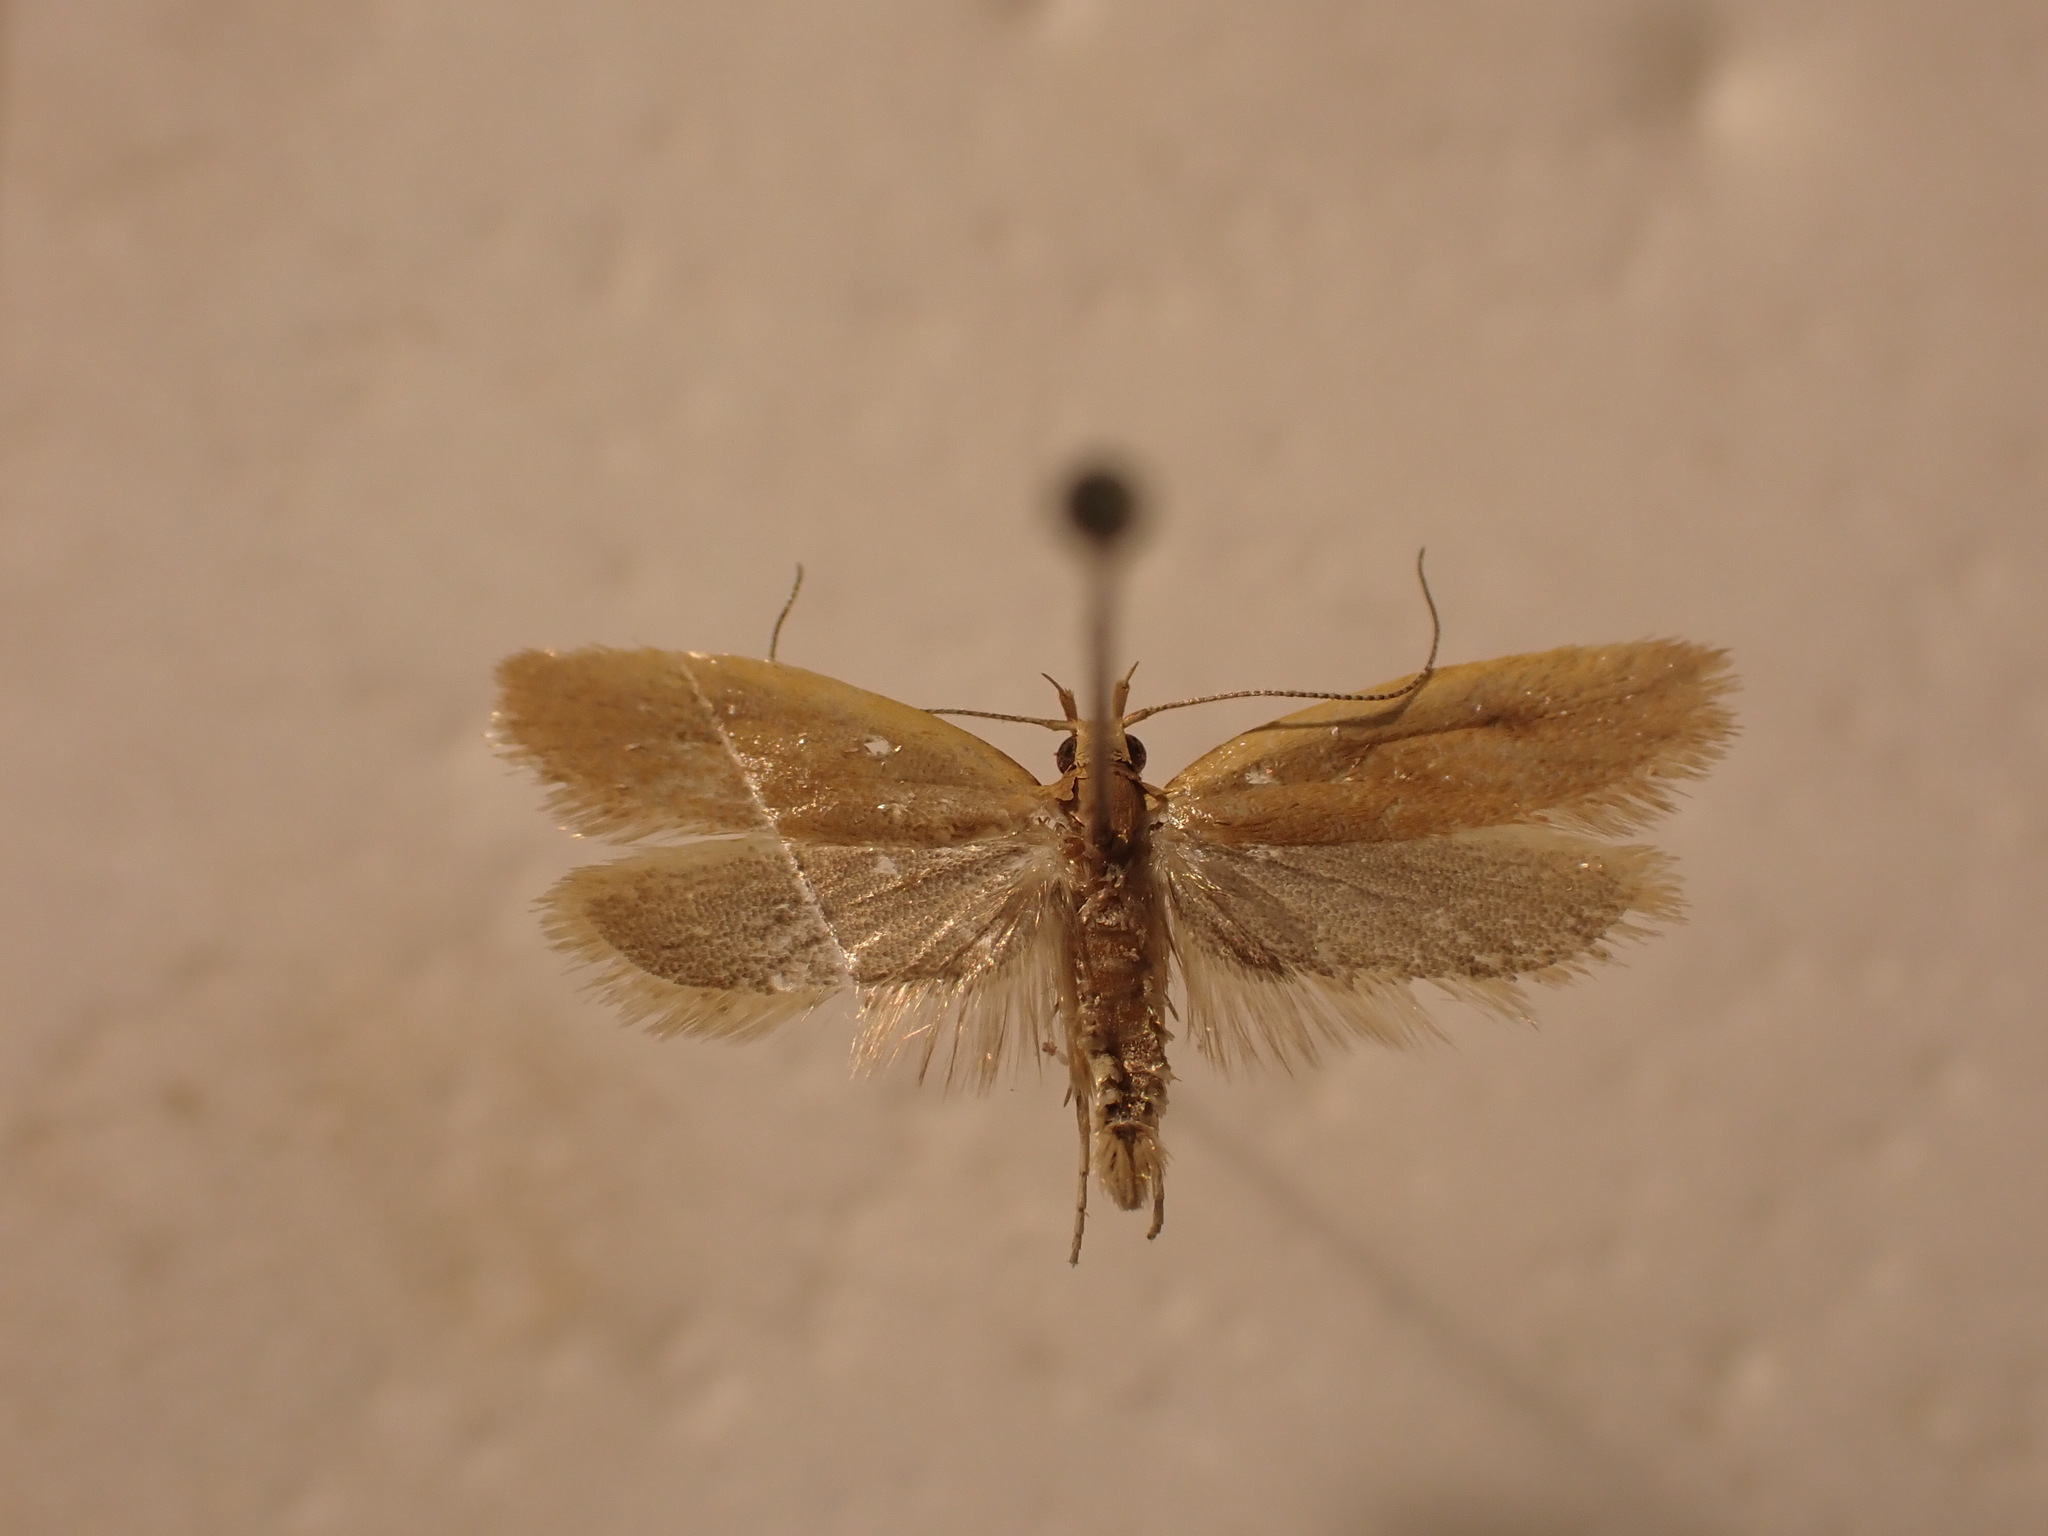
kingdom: Animalia
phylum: Arthropoda
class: Insecta
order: Lepidoptera
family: Oecophoridae
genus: Gymnobathra
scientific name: Gymnobathra parca
